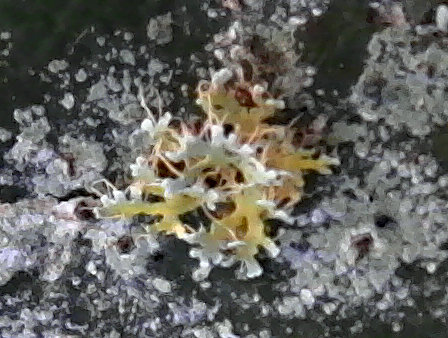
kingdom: Fungi
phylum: Ascomycota
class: Lecanoromycetes
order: Teloschistales
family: Teloschistaceae
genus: Niorma
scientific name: Niorma chrysophthalma
